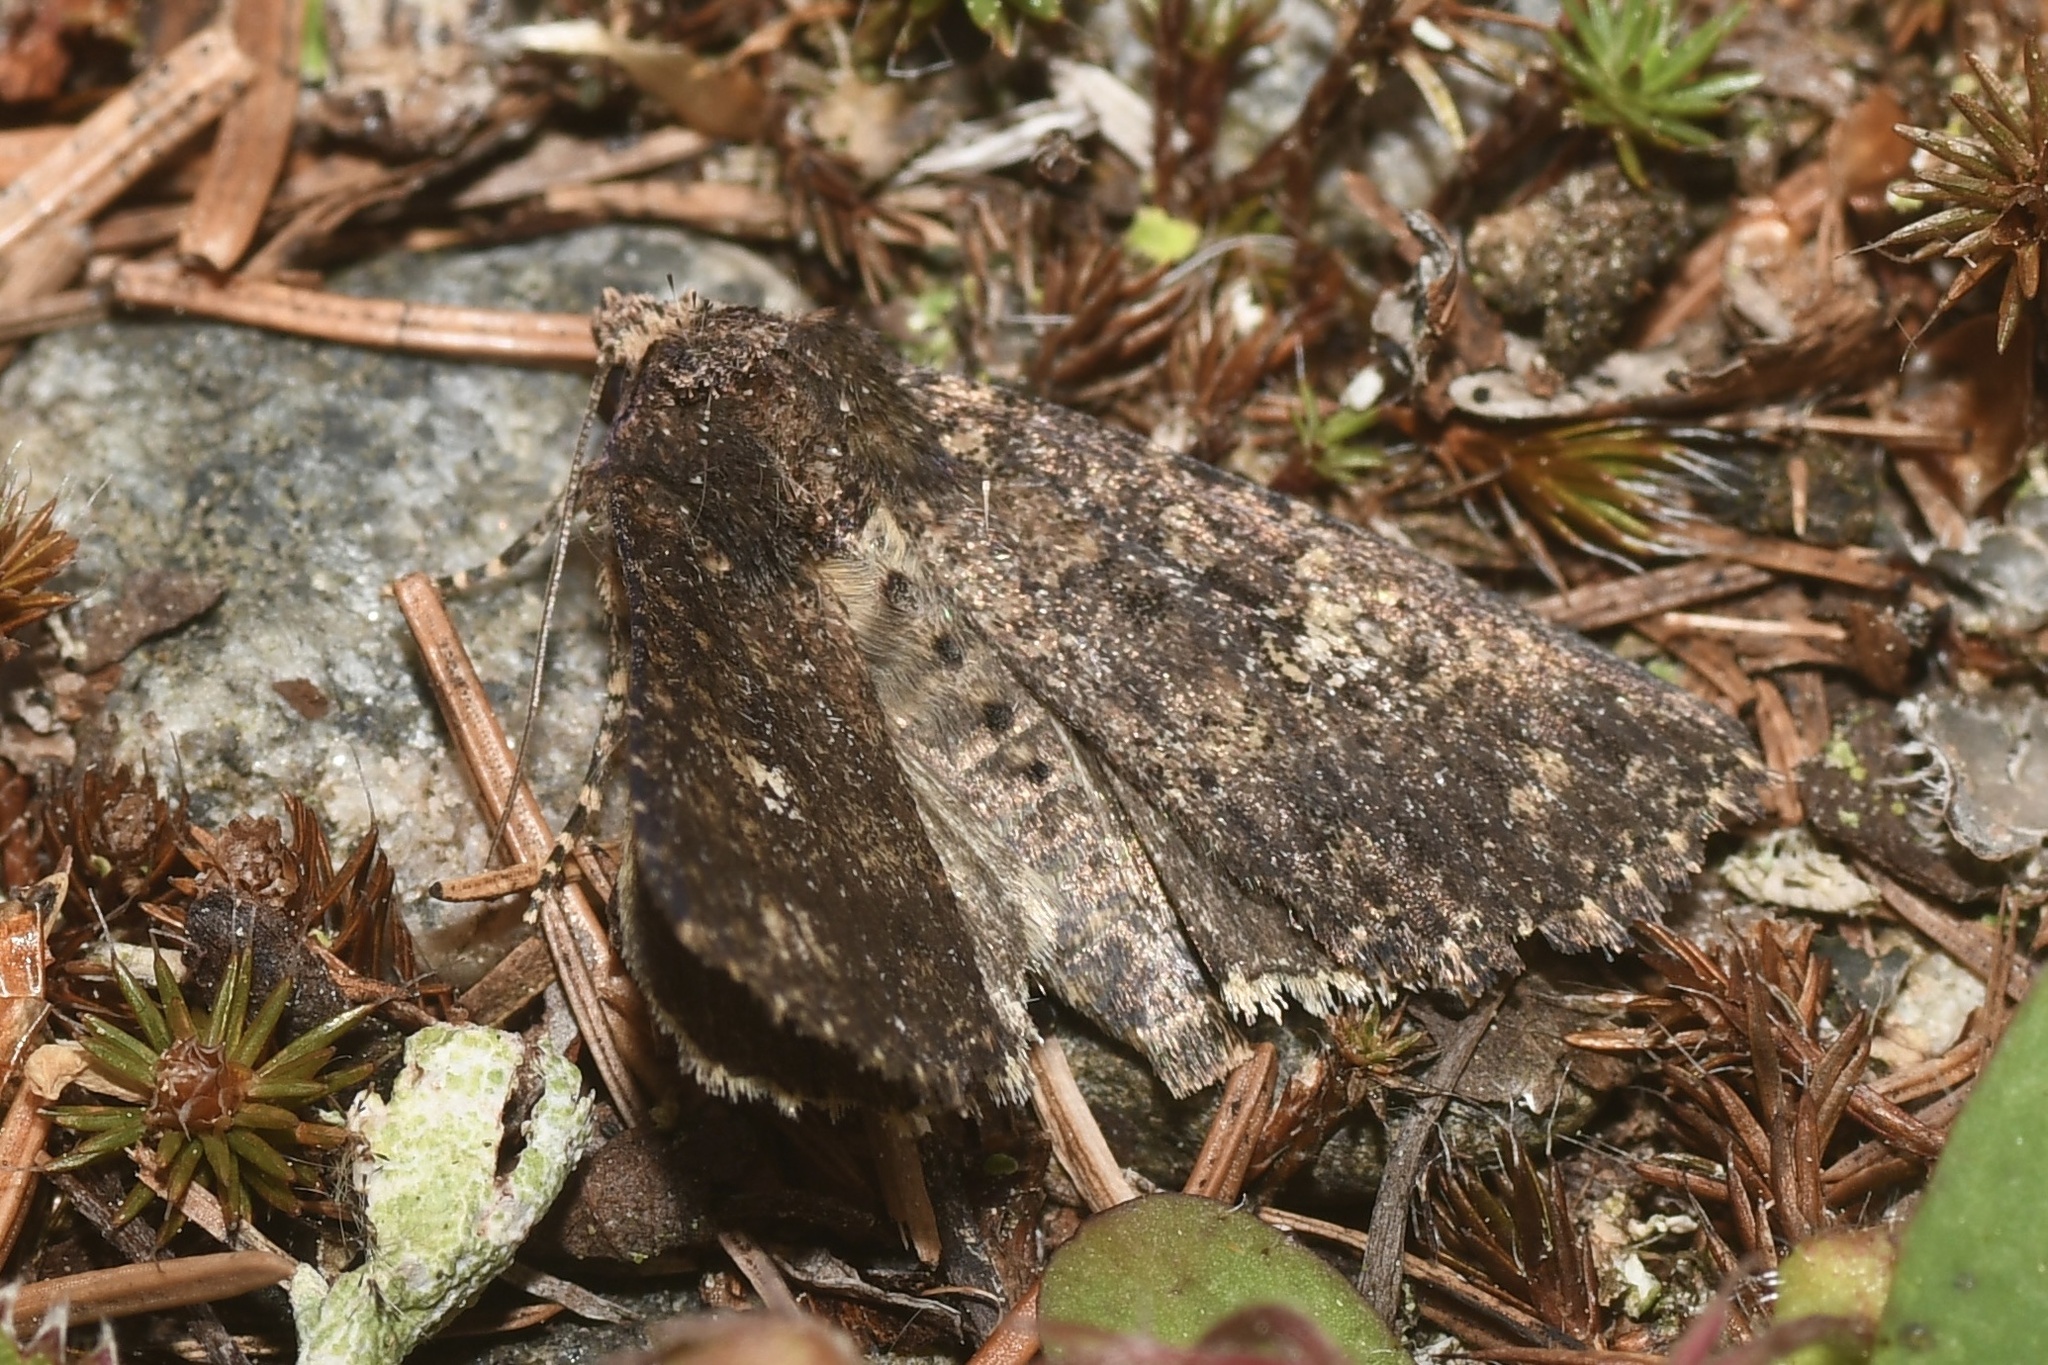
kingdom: Animalia
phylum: Arthropoda
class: Insecta
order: Lepidoptera
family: Noctuidae
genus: Condica
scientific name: Condica vecors
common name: Dusky groundling
